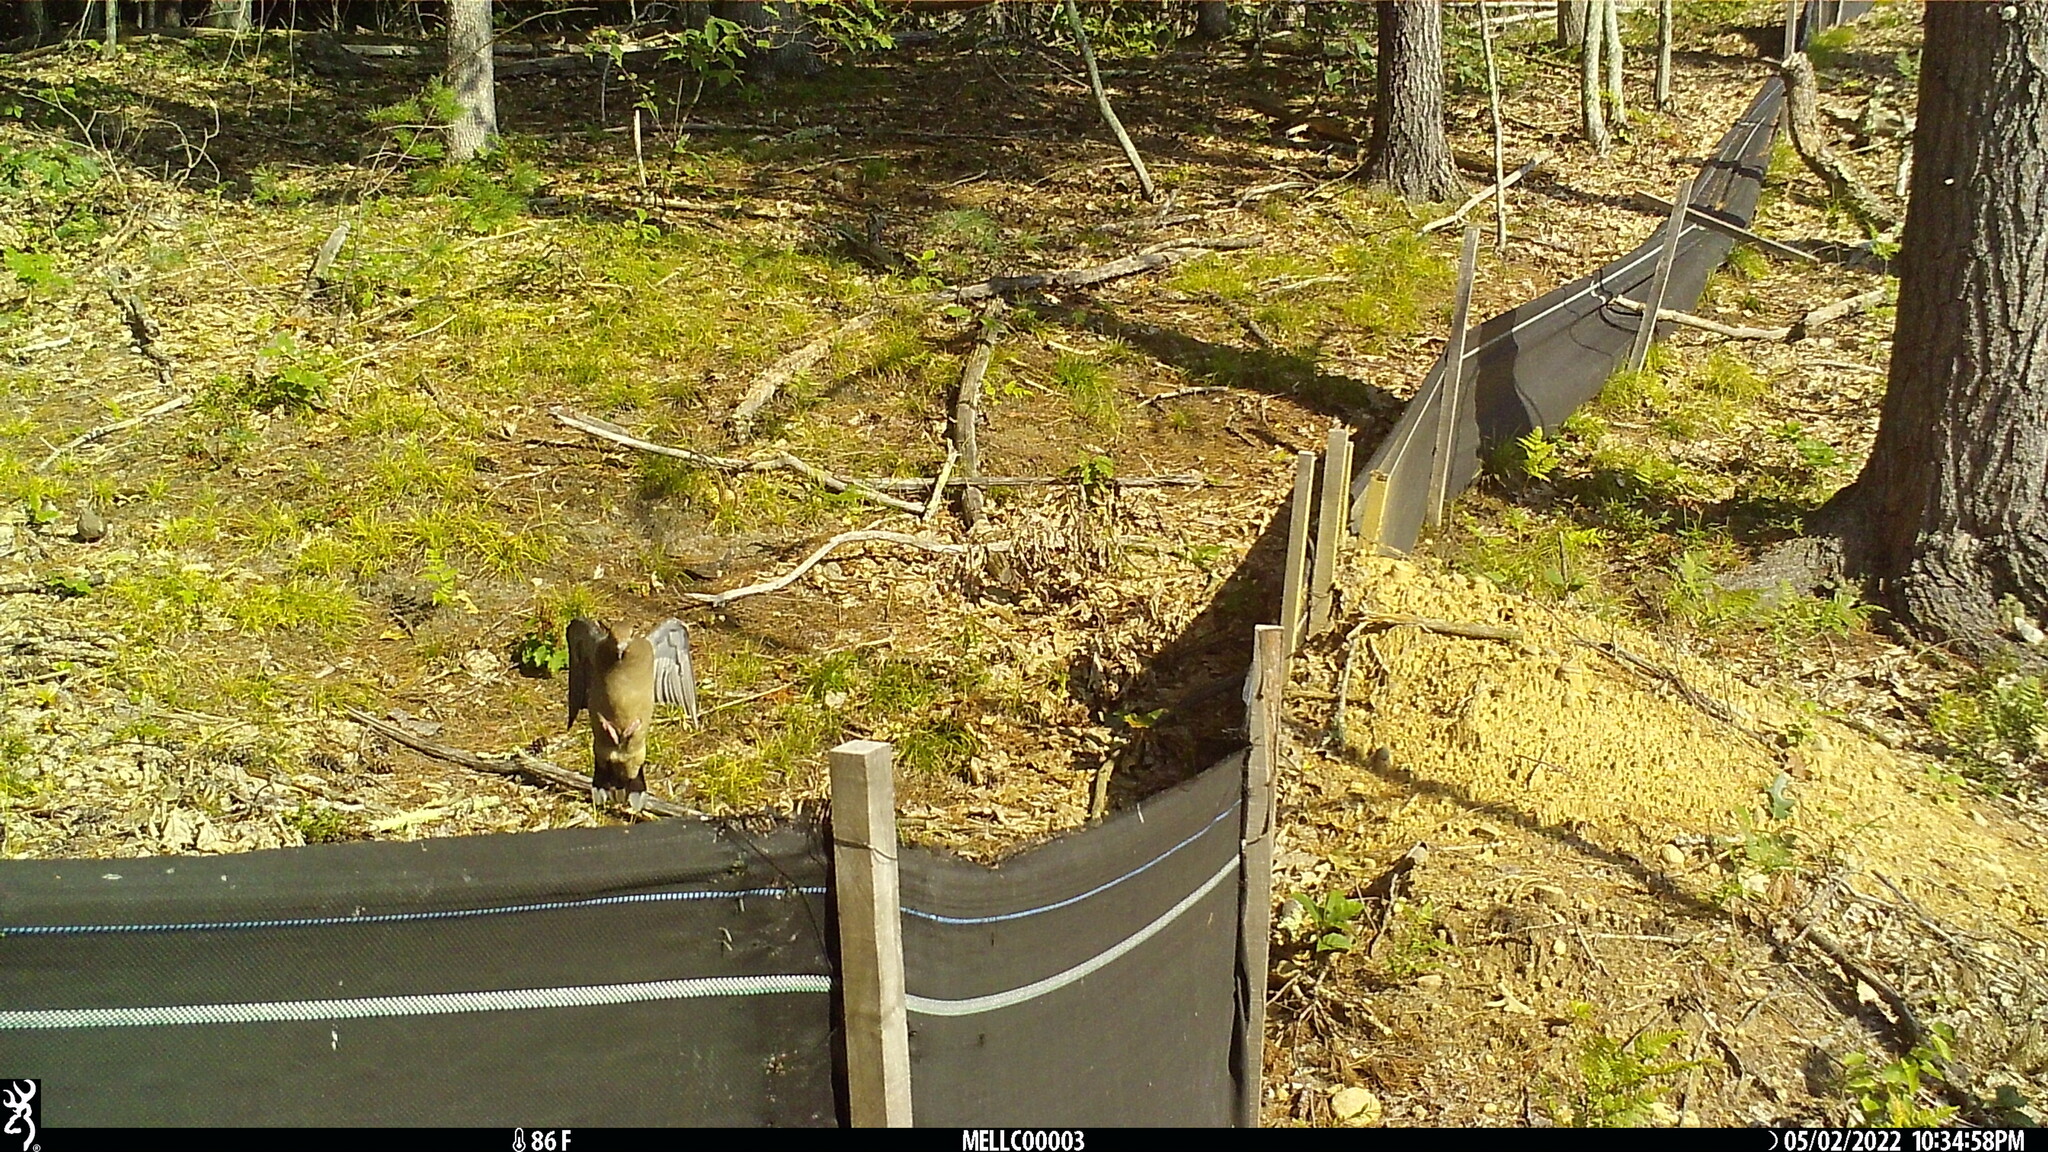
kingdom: Animalia
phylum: Chordata
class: Aves
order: Columbiformes
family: Columbidae
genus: Zenaida
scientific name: Zenaida macroura
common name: Mourning dove
